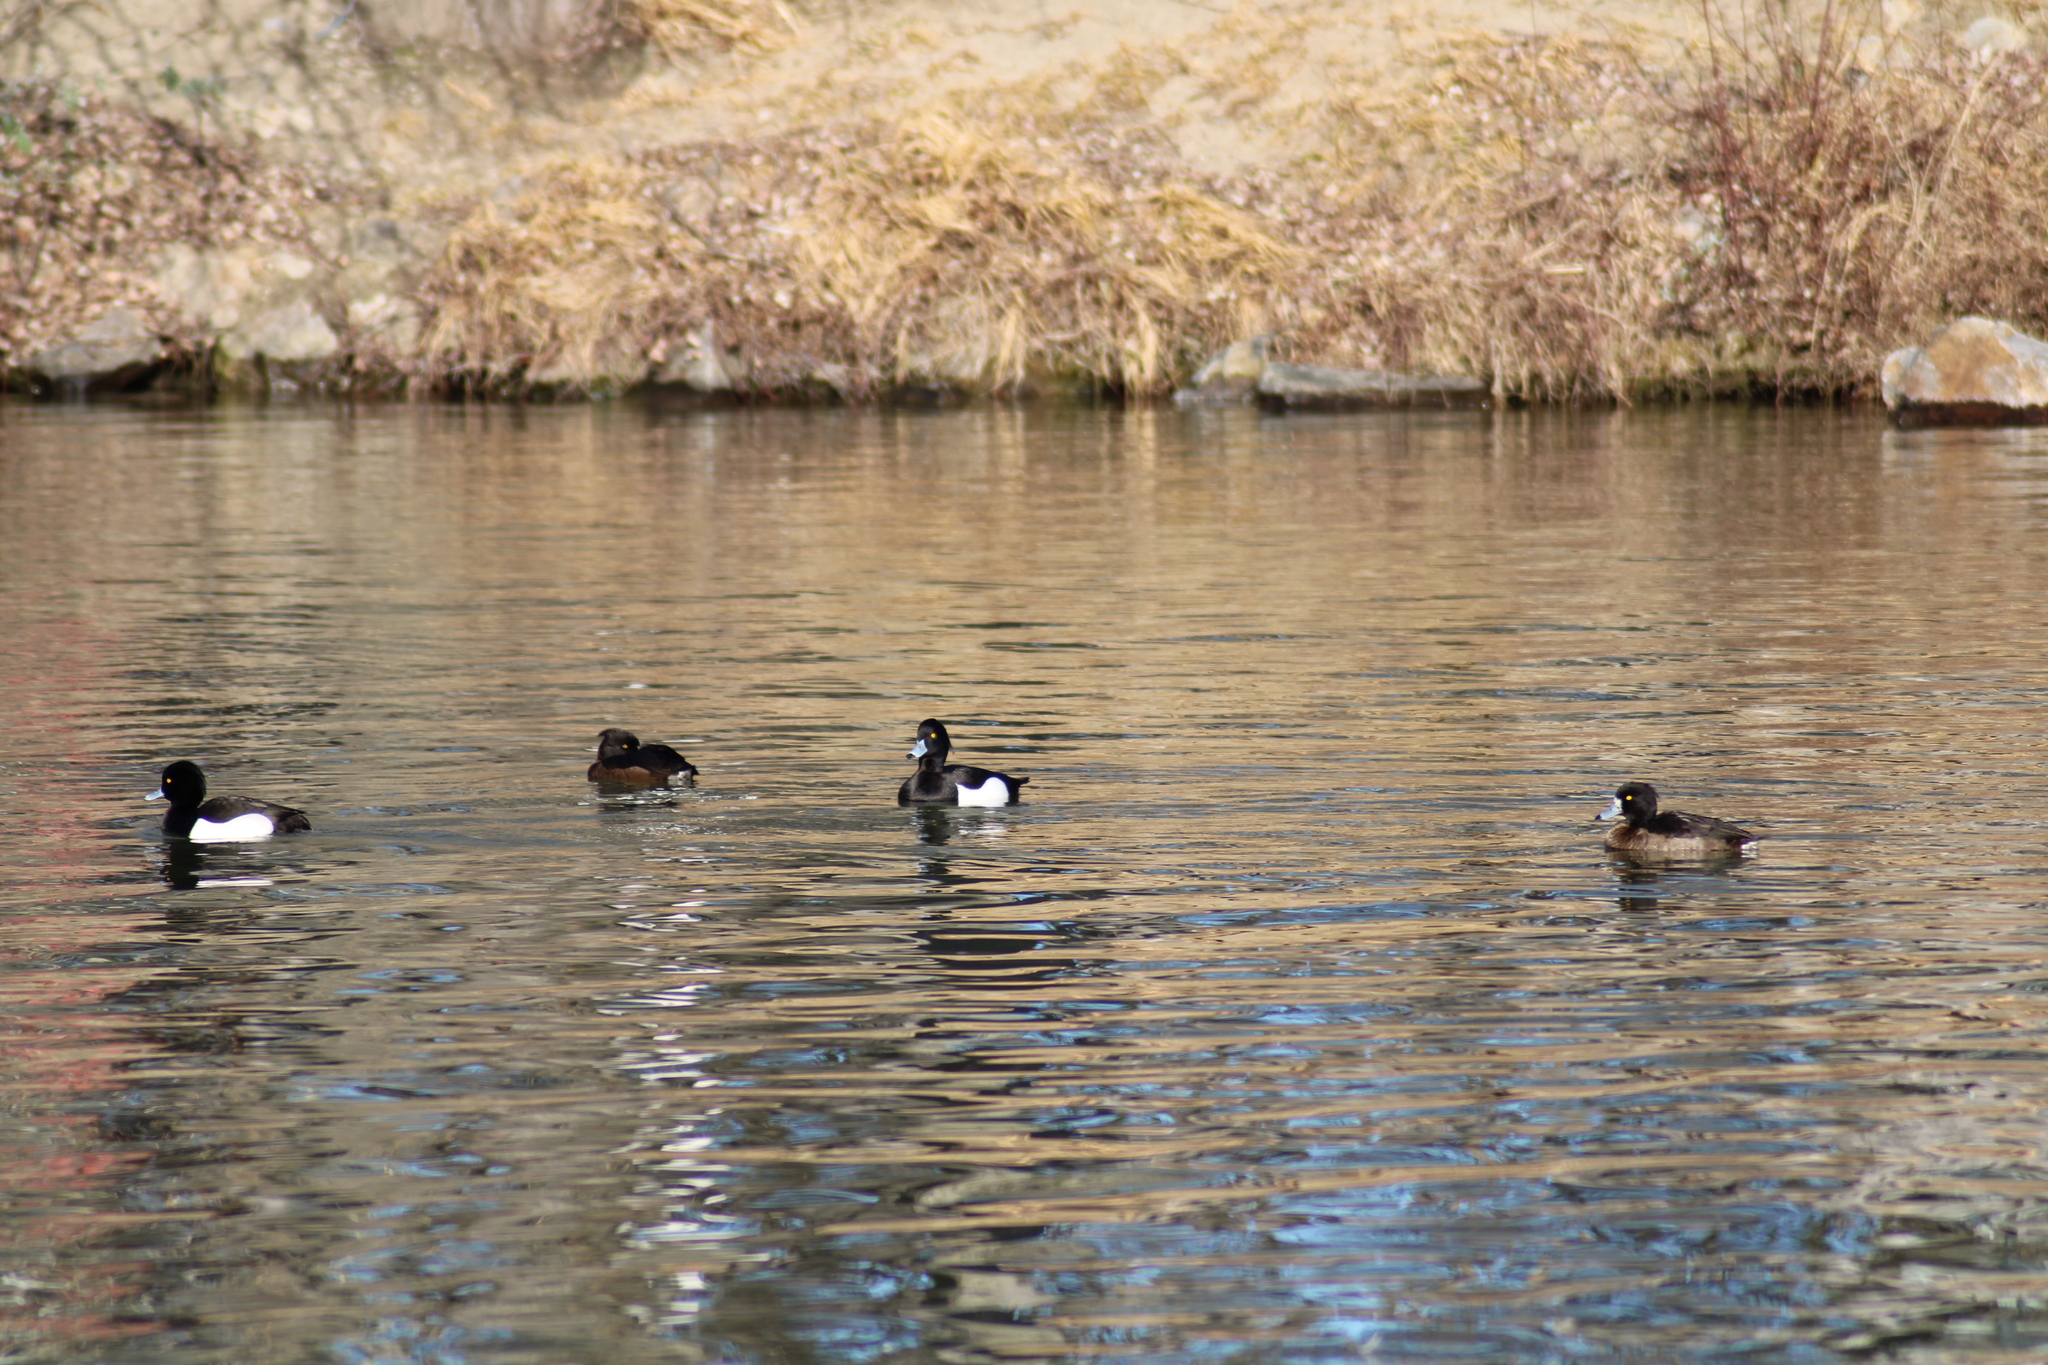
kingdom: Animalia
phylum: Chordata
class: Aves
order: Anseriformes
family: Anatidae
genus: Aythya
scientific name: Aythya fuligula
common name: Tufted duck
